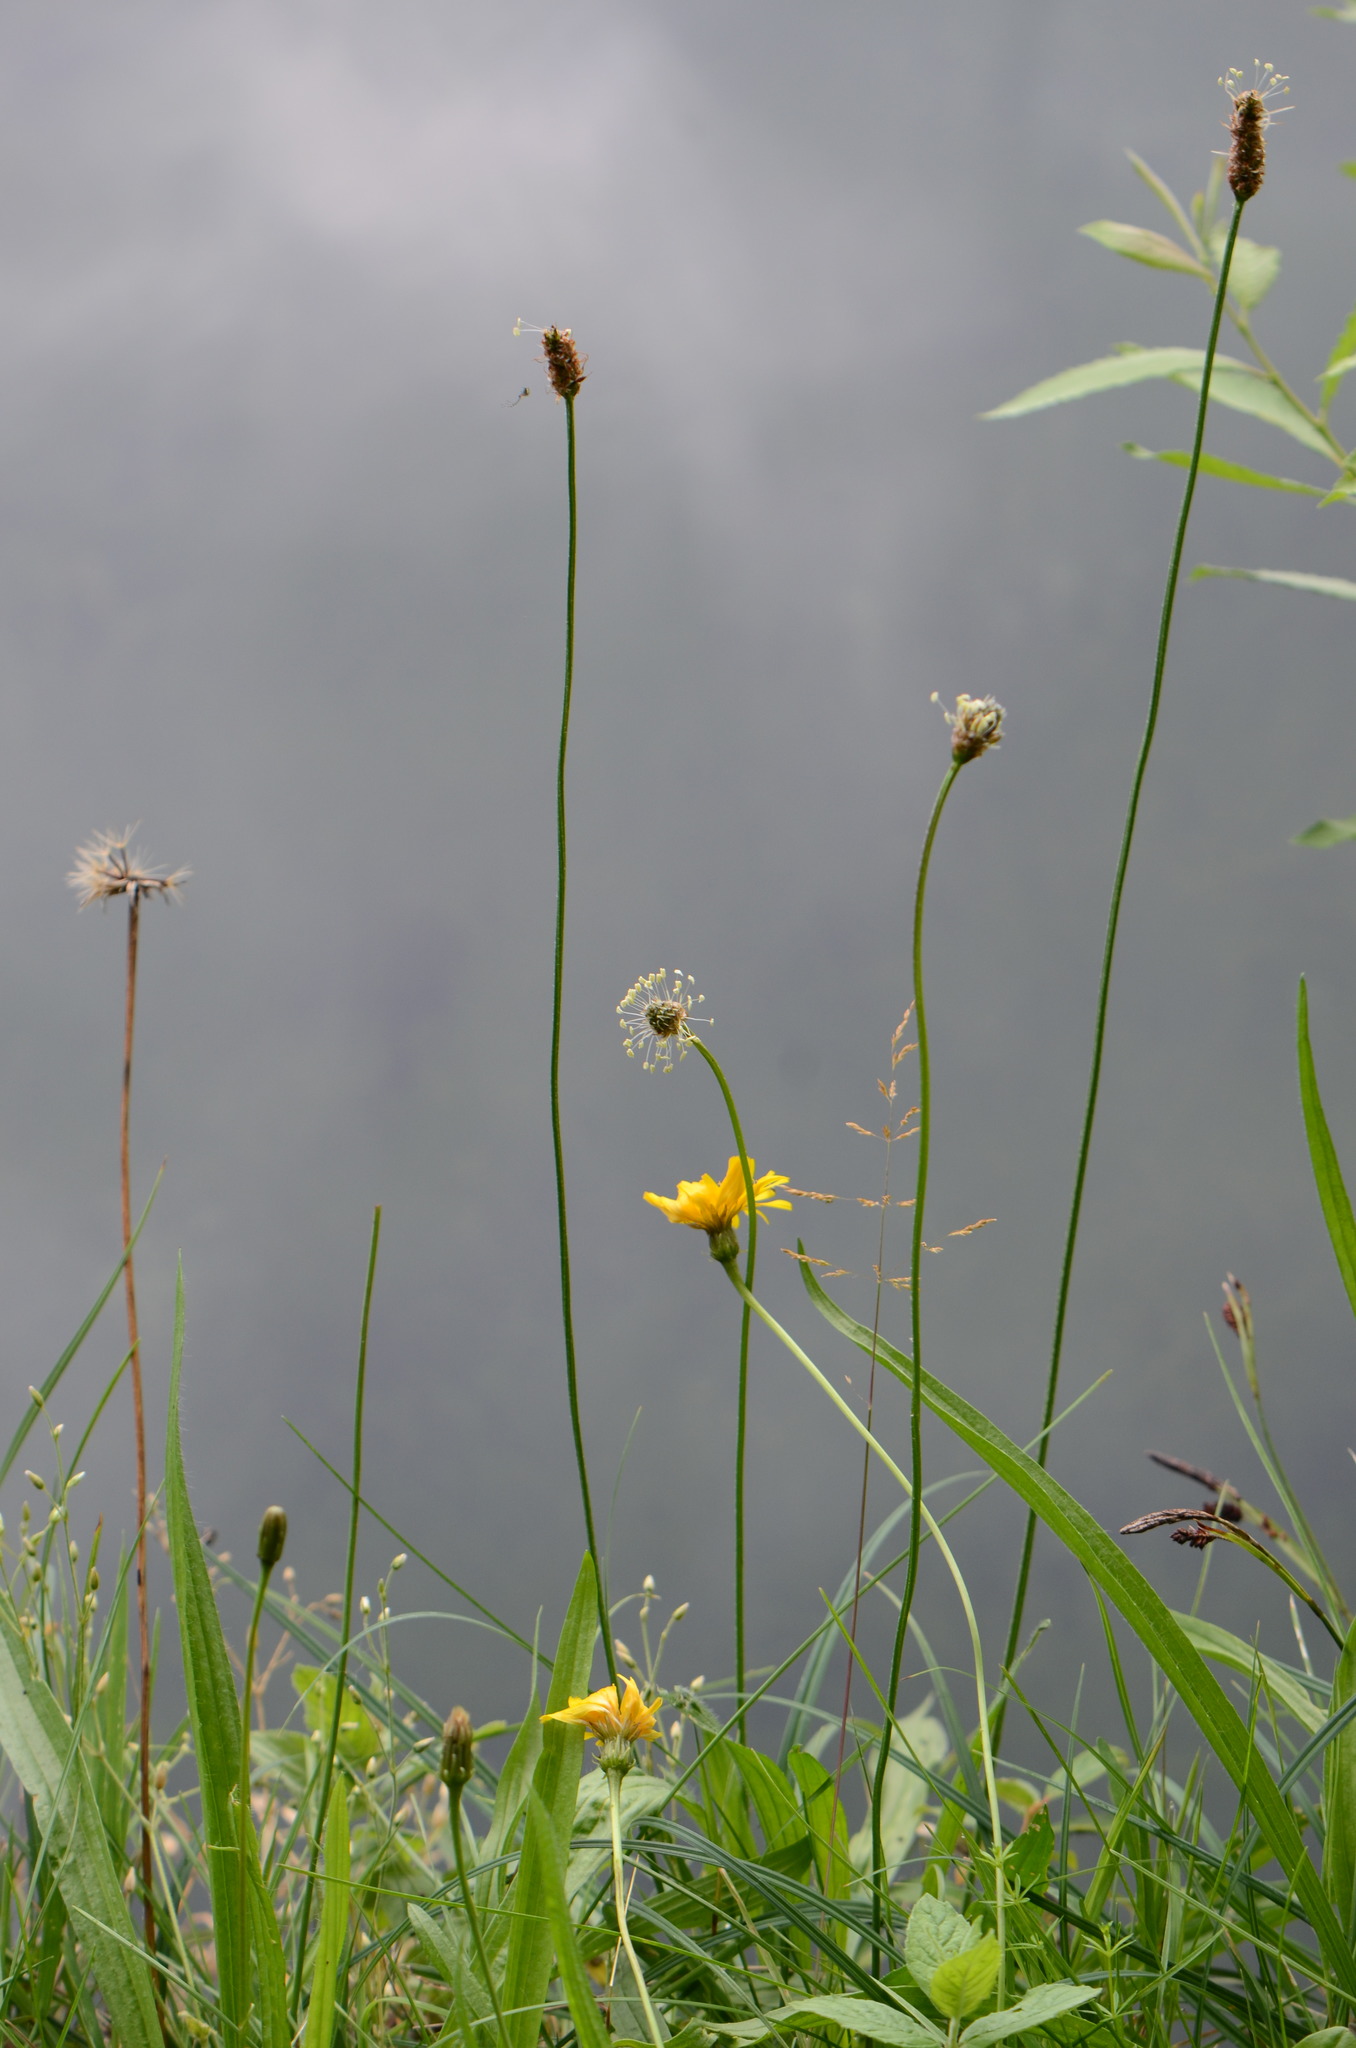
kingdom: Plantae
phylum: Tracheophyta
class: Magnoliopsida
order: Asterales
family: Asteraceae
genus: Leontodon
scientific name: Leontodon hispidus
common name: Rough hawkbit
